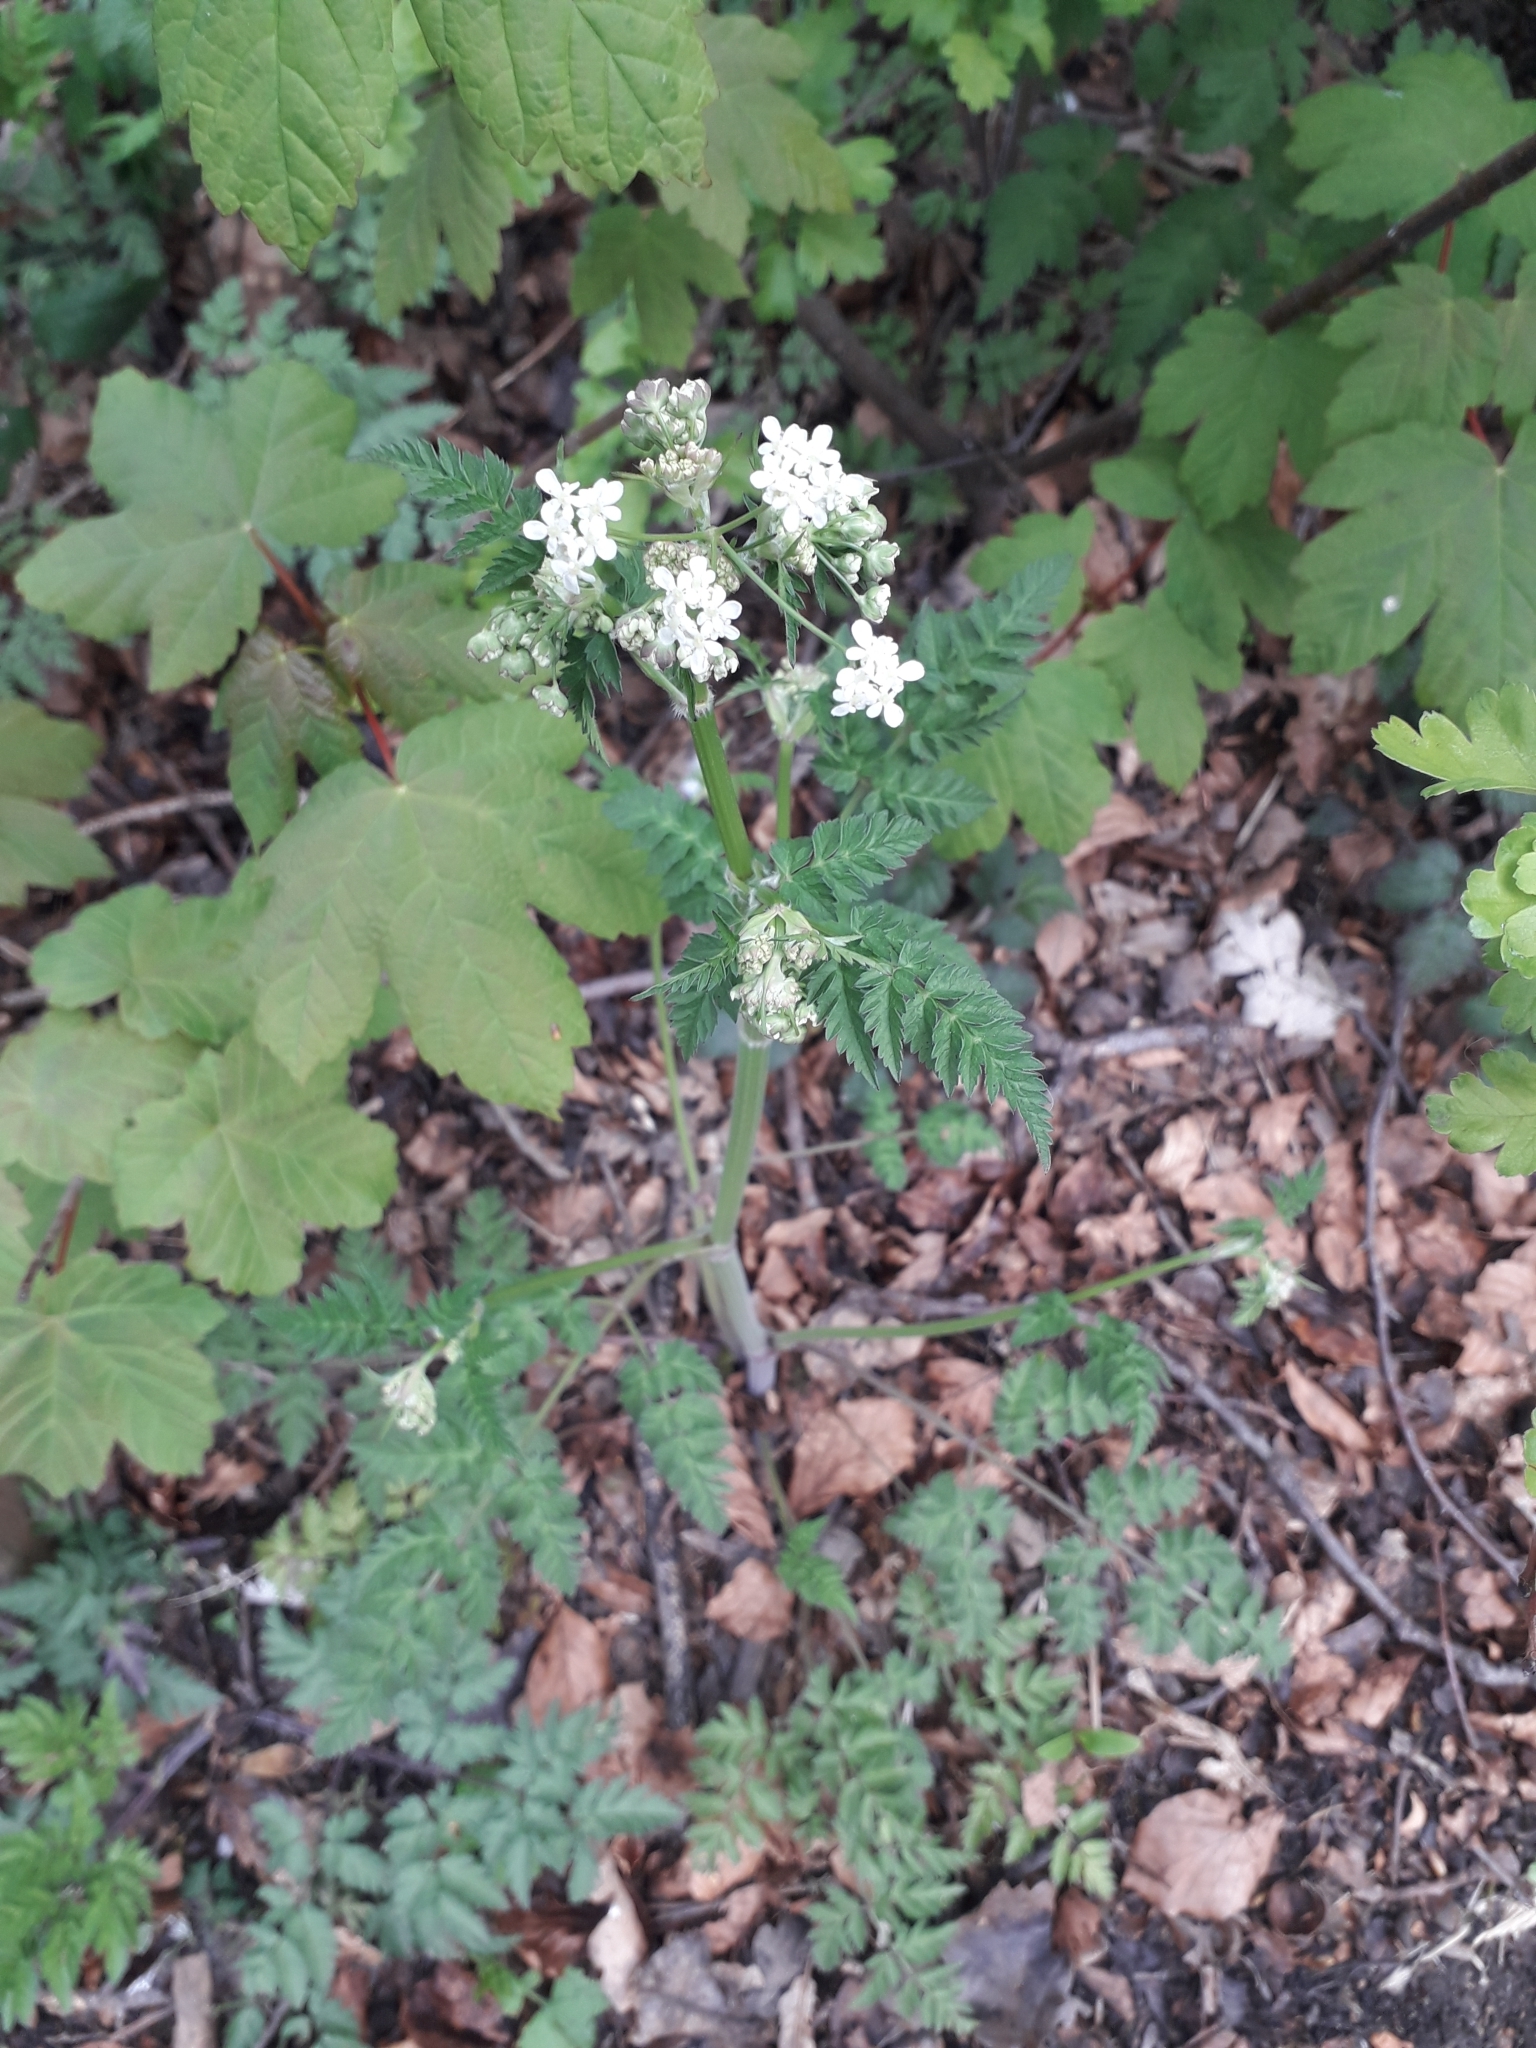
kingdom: Plantae
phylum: Tracheophyta
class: Magnoliopsida
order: Apiales
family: Apiaceae
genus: Anthriscus
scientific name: Anthriscus sylvestris
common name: Cow parsley
